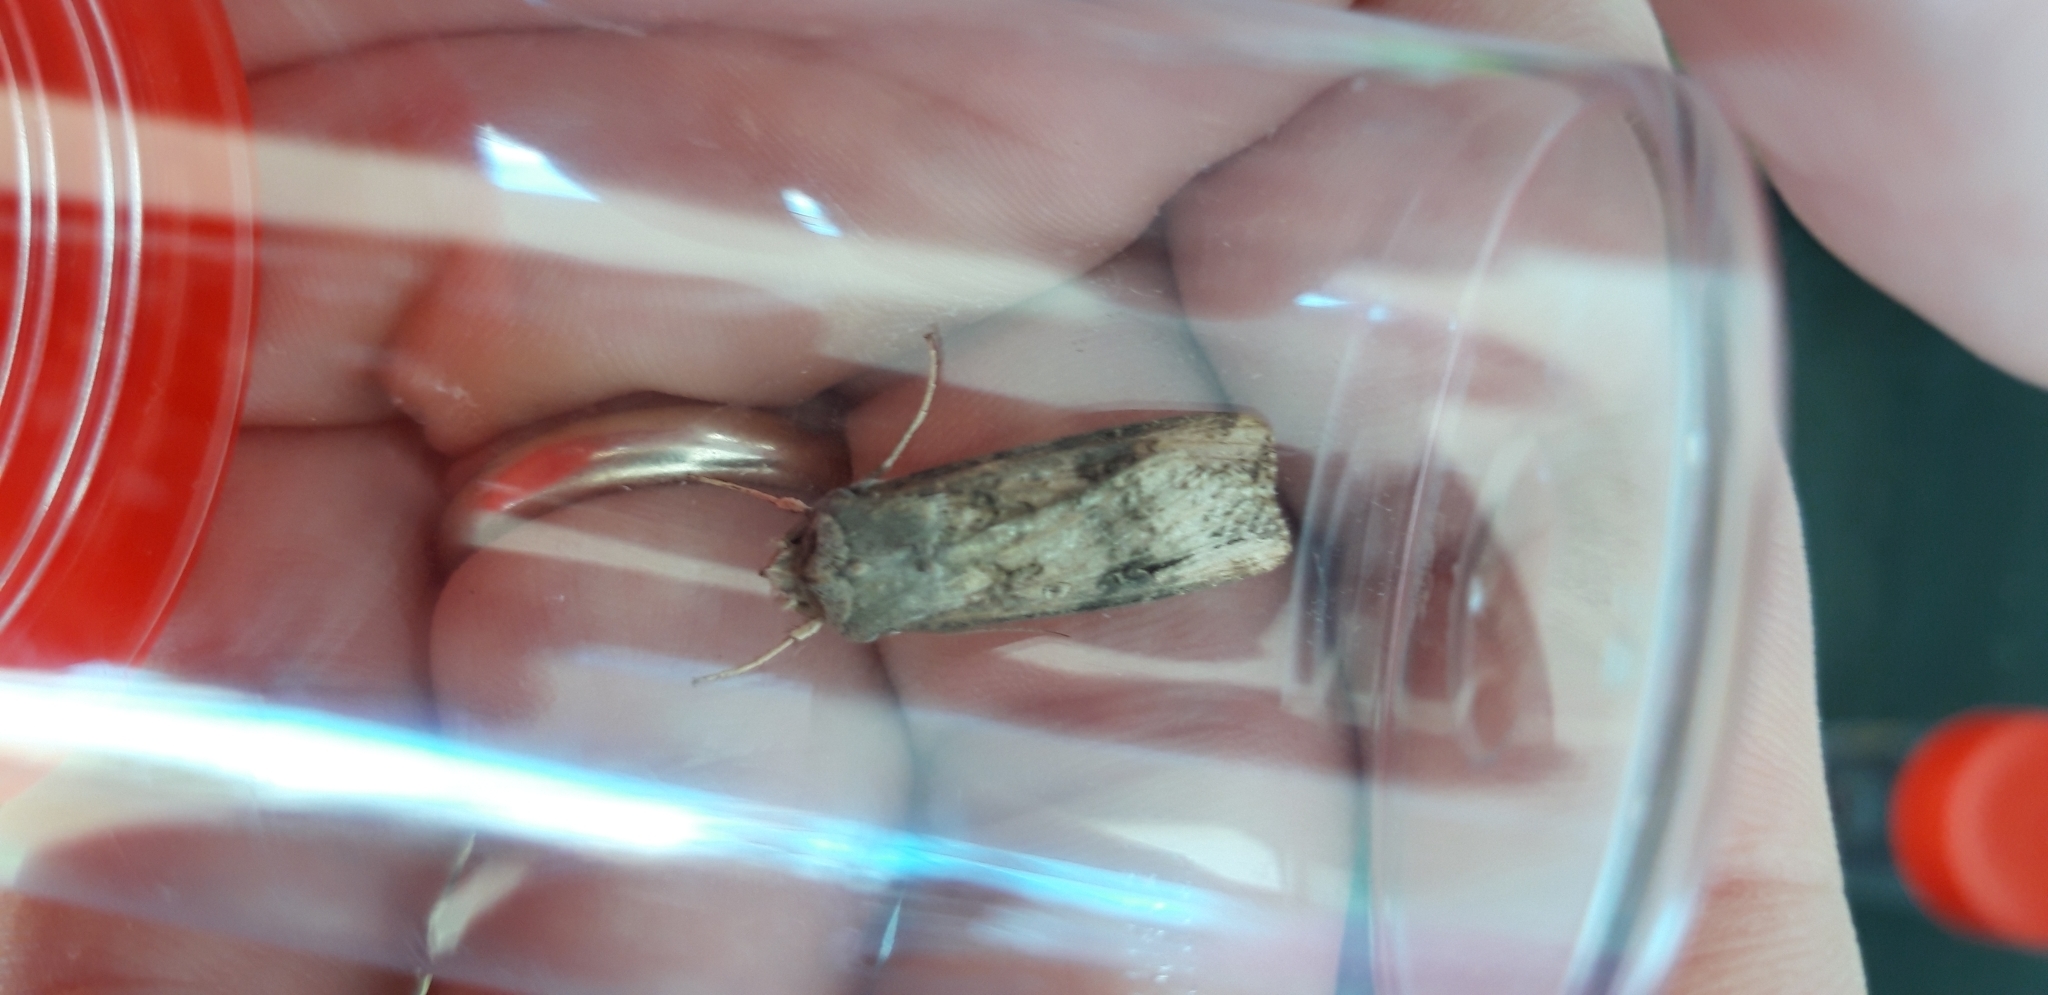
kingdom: Animalia
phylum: Arthropoda
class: Insecta
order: Lepidoptera
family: Noctuidae
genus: Agrotis
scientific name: Agrotis ipsilon
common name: Dark sword-grass
